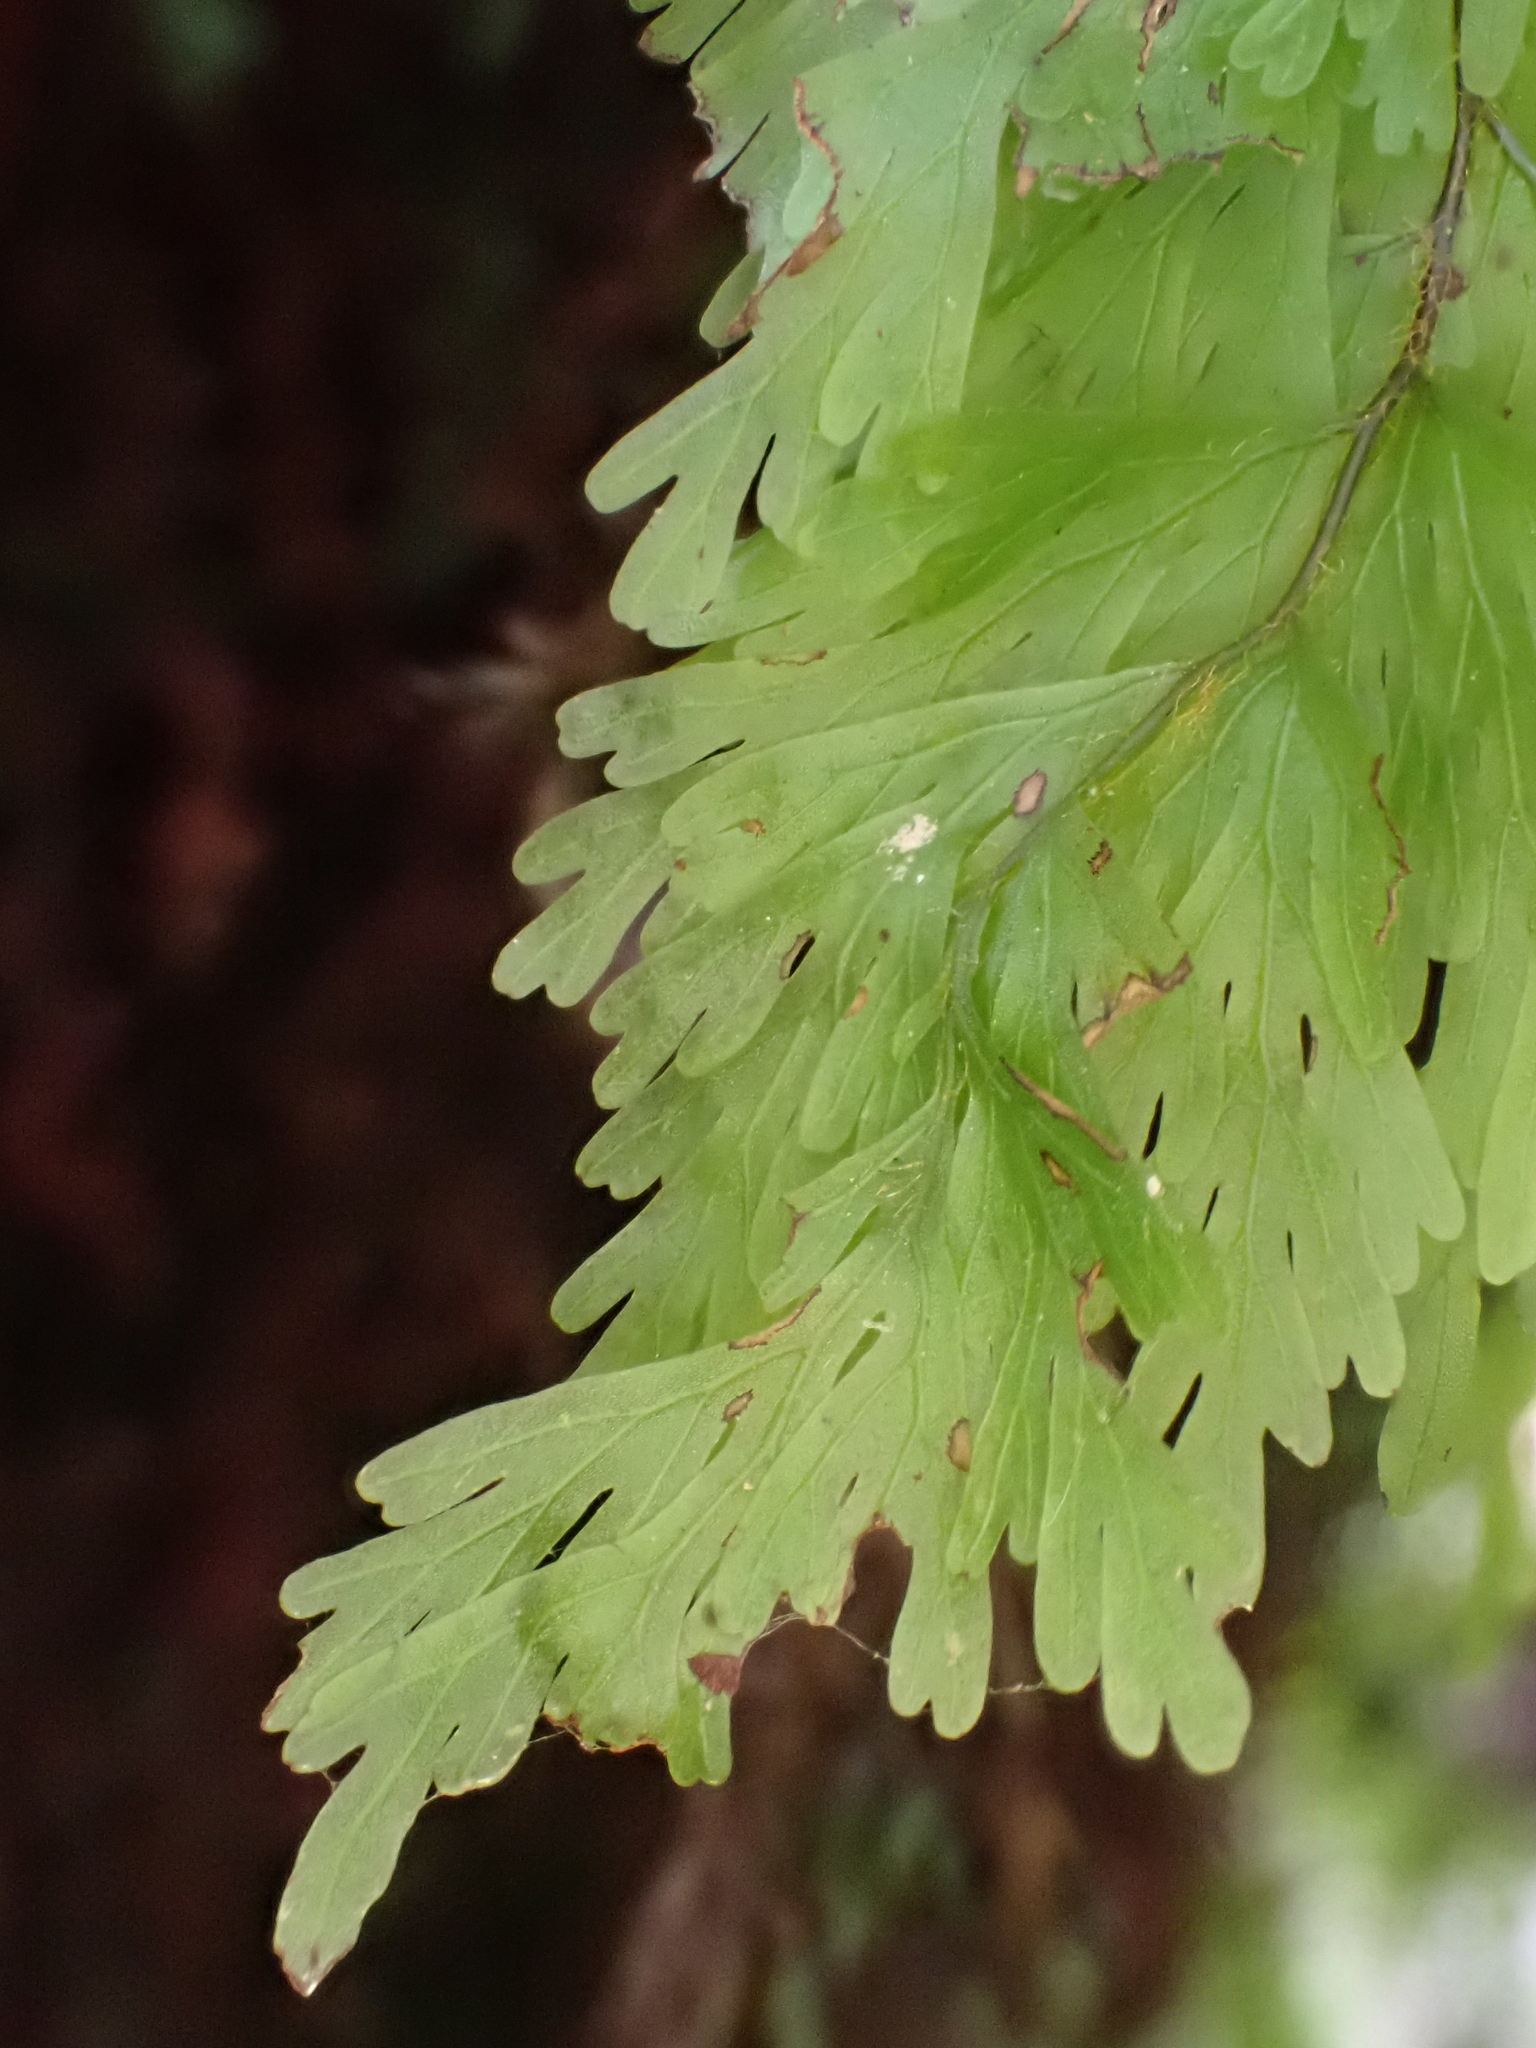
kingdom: Plantae
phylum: Tracheophyta
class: Polypodiopsida
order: Hymenophyllales
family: Hymenophyllaceae
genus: Hymenophyllum
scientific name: Hymenophyllum flabellatum
